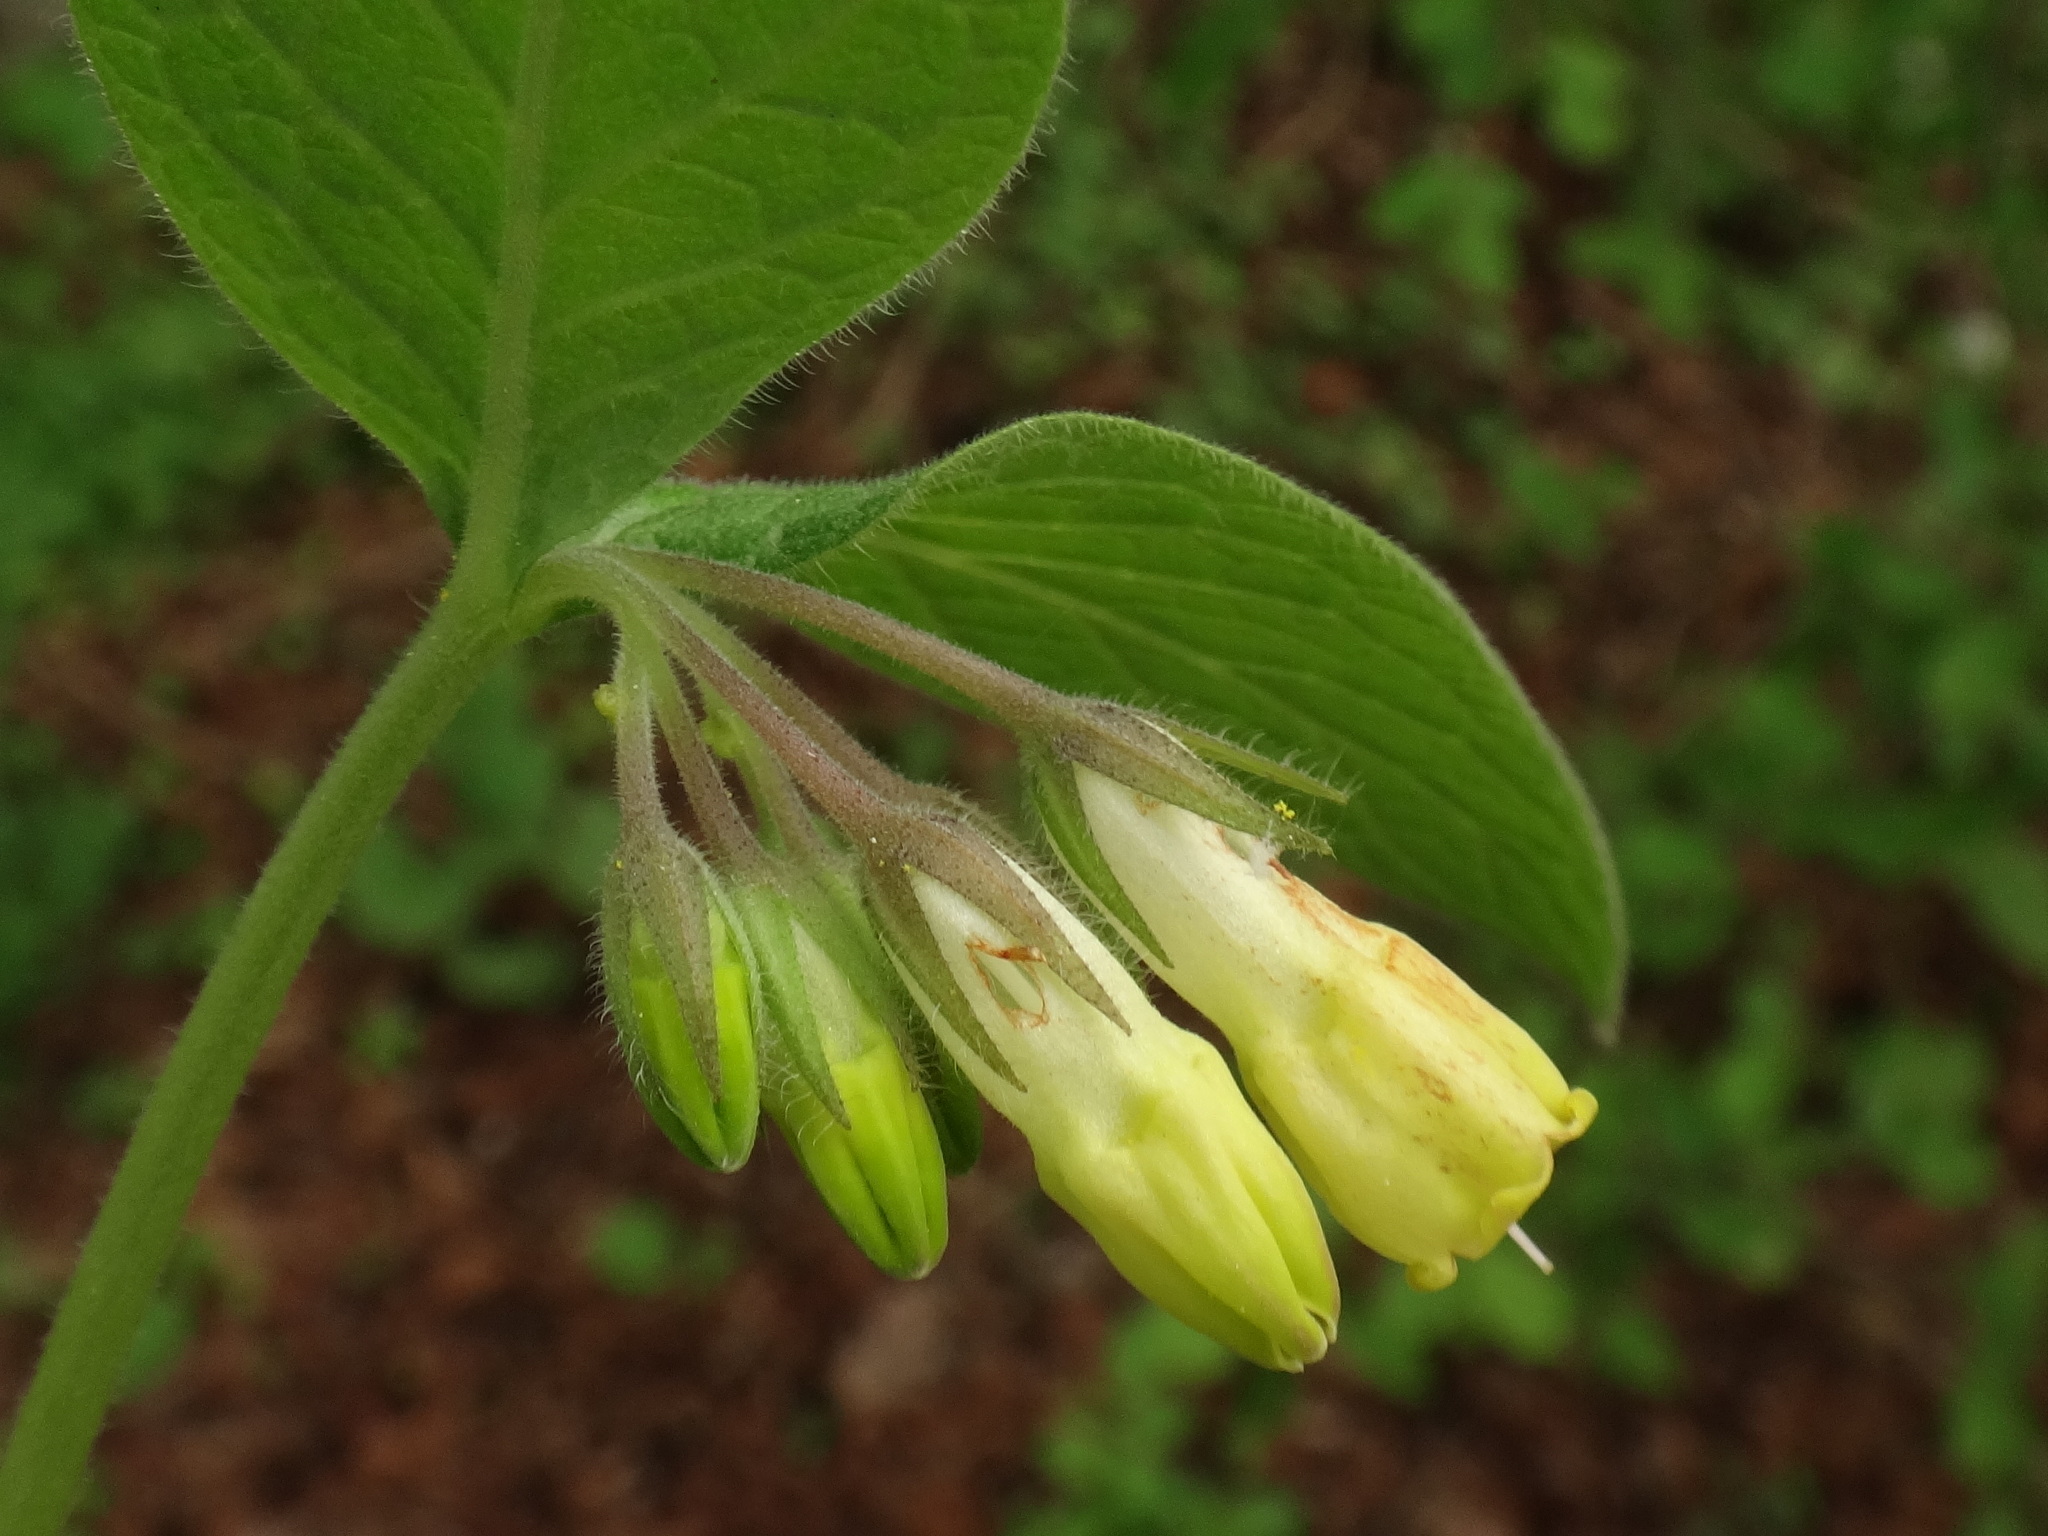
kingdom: Plantae
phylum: Tracheophyta
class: Magnoliopsida
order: Boraginales
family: Boraginaceae
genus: Symphytum
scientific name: Symphytum tuberosum
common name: Tuberous comfrey
